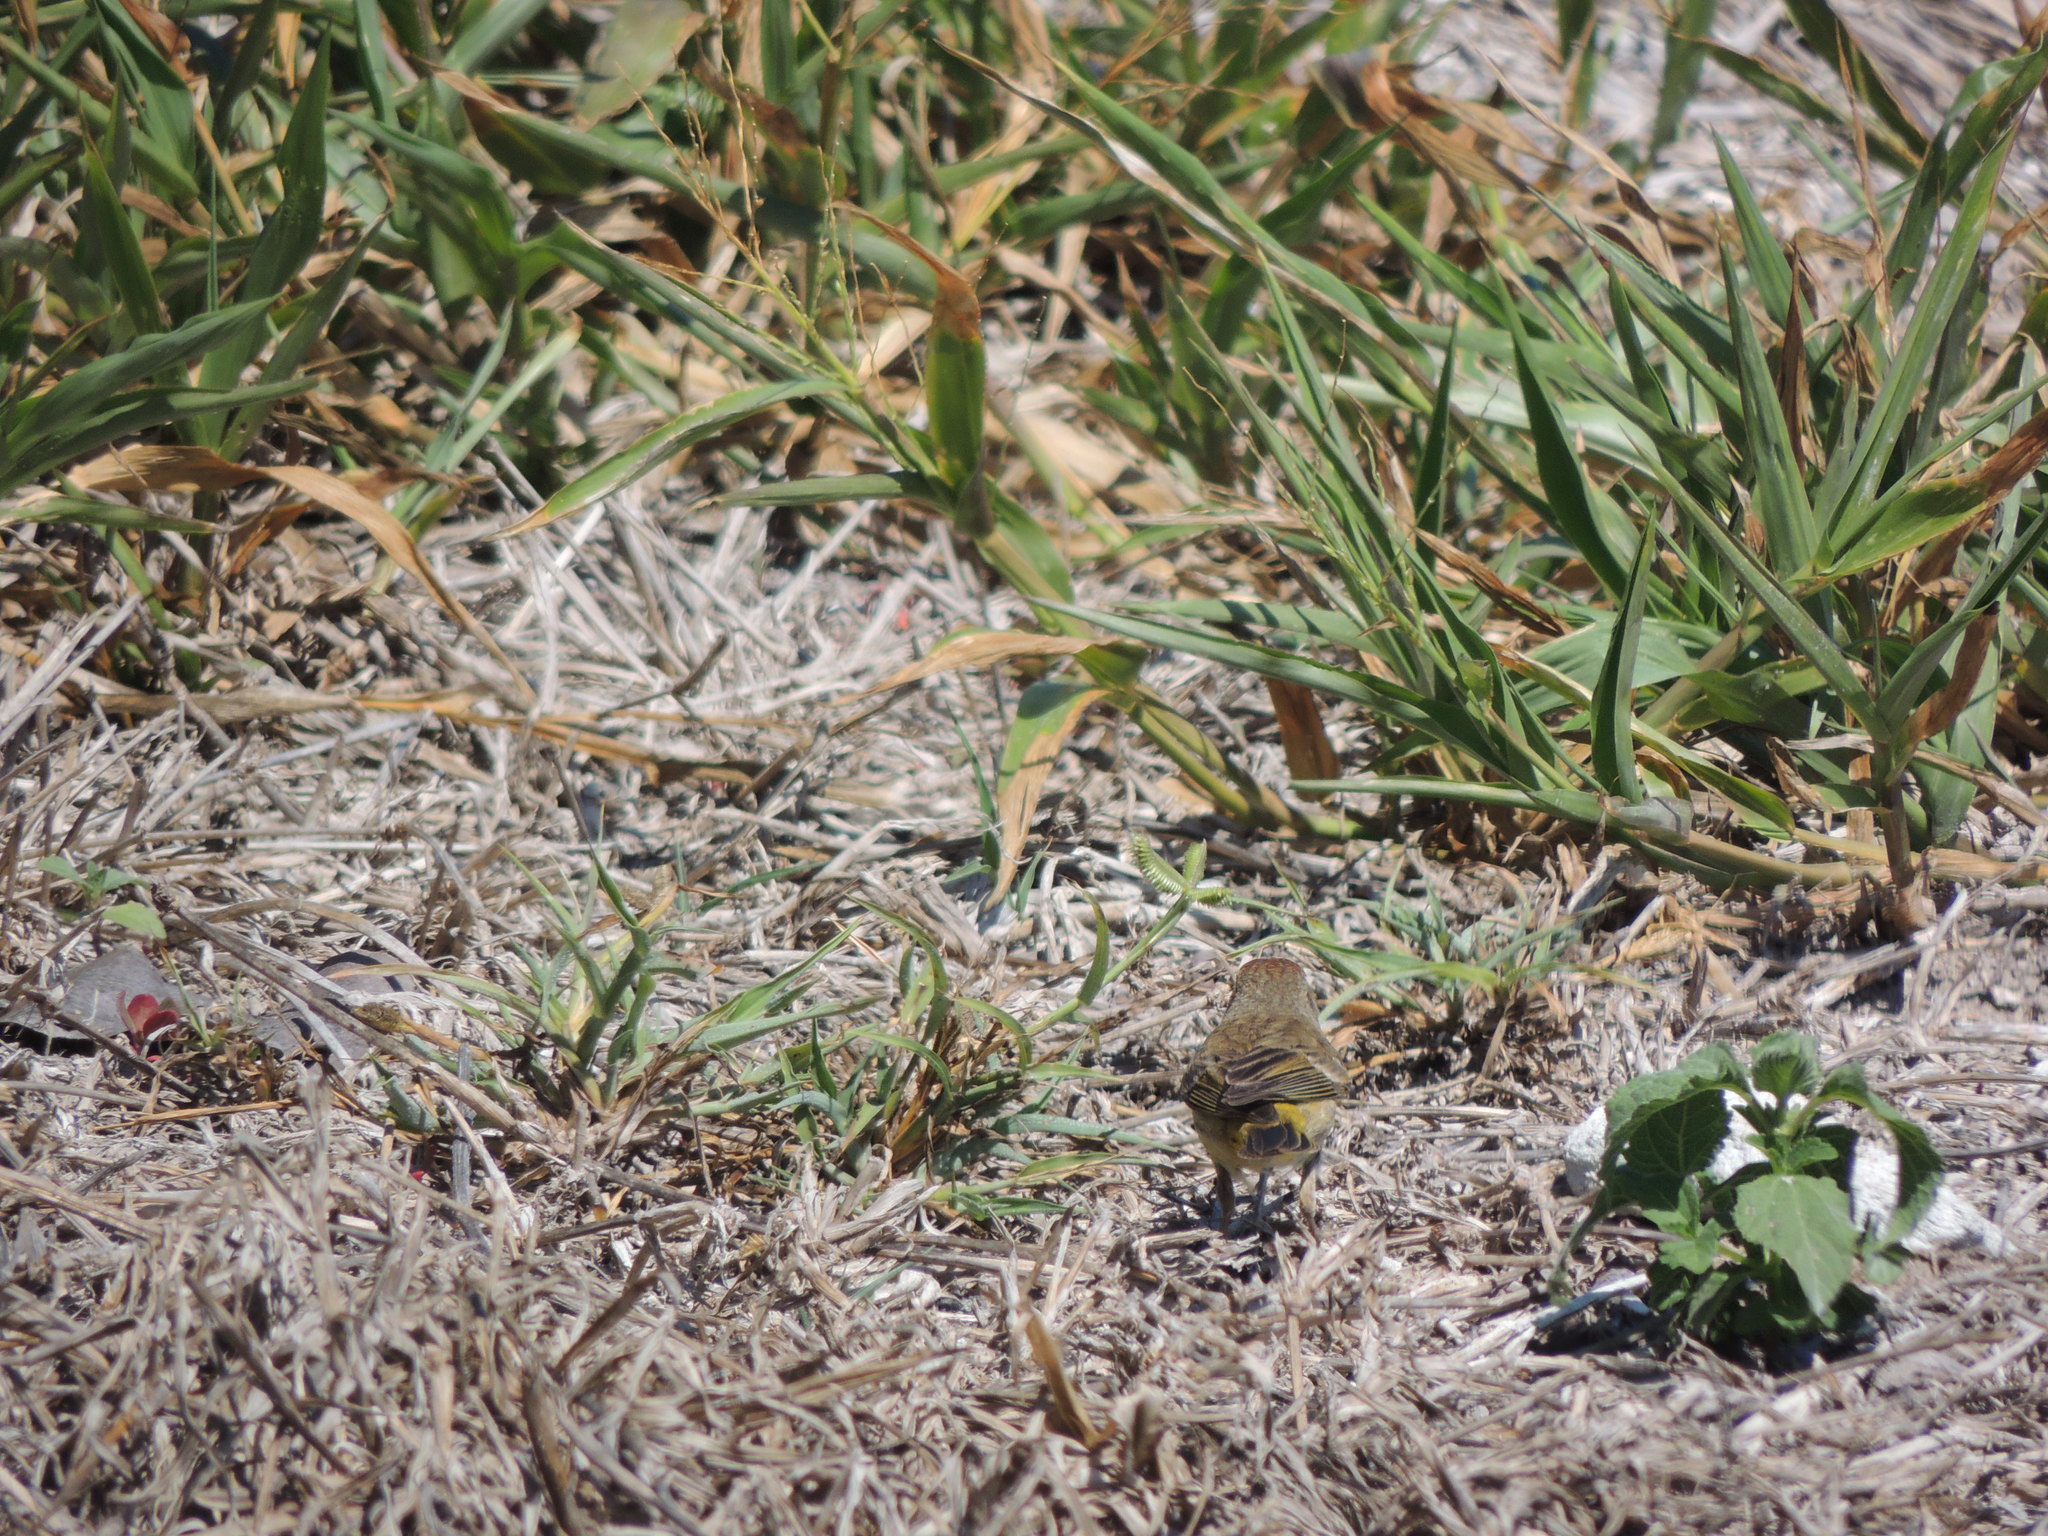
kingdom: Animalia
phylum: Chordata
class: Aves
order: Passeriformes
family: Parulidae
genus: Setophaga
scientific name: Setophaga palmarum
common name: Palm warbler
